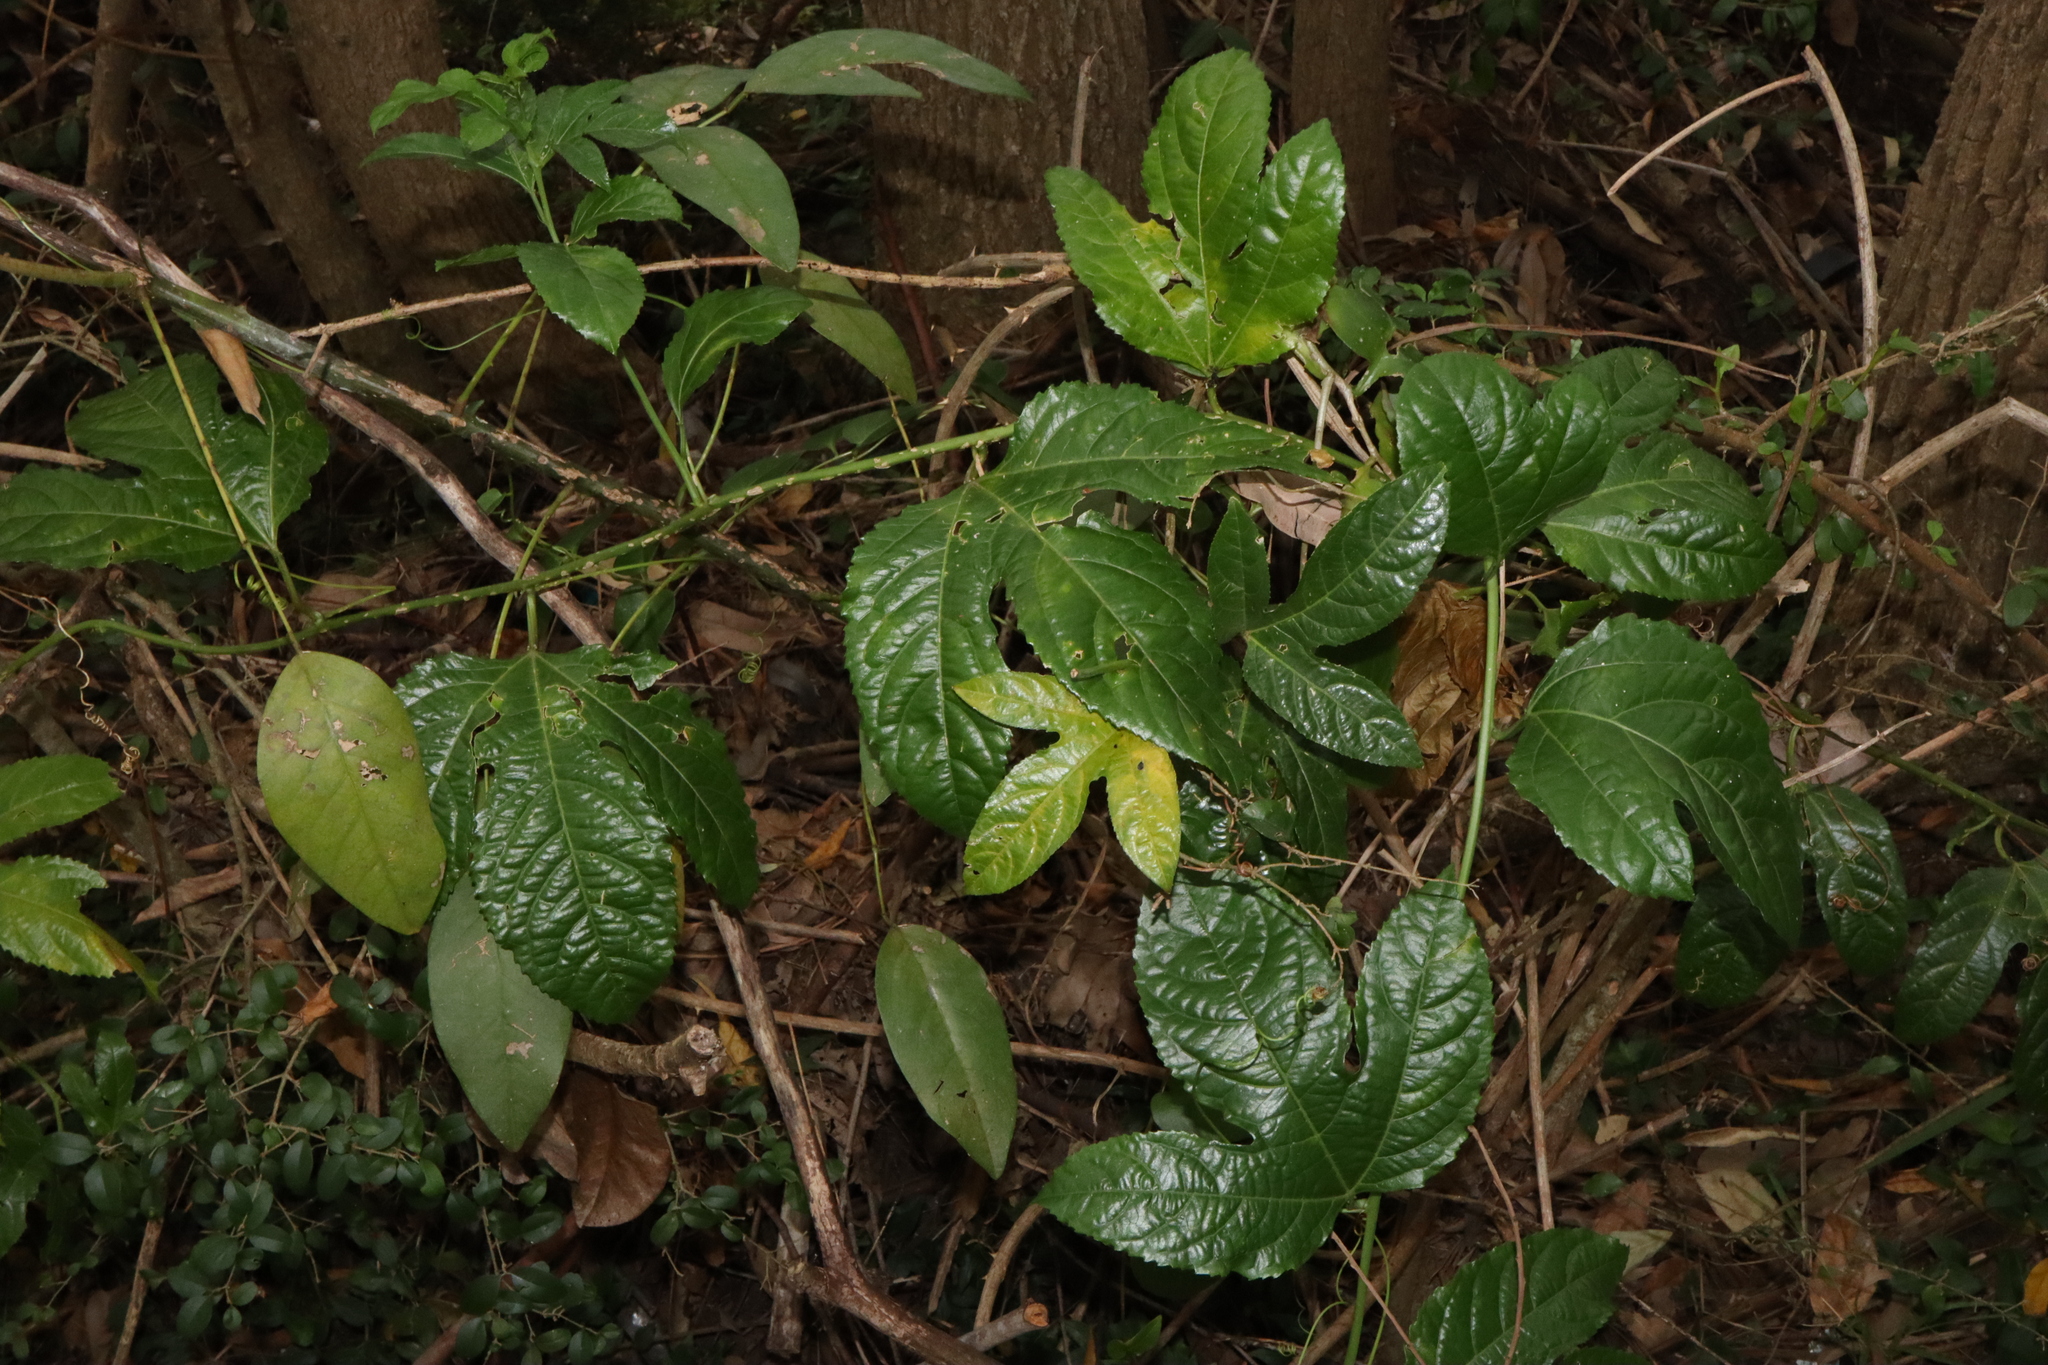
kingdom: Plantae
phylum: Tracheophyta
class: Magnoliopsida
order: Malpighiales
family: Passifloraceae
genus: Passiflora
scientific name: Passiflora edulis
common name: Purple granadilla
